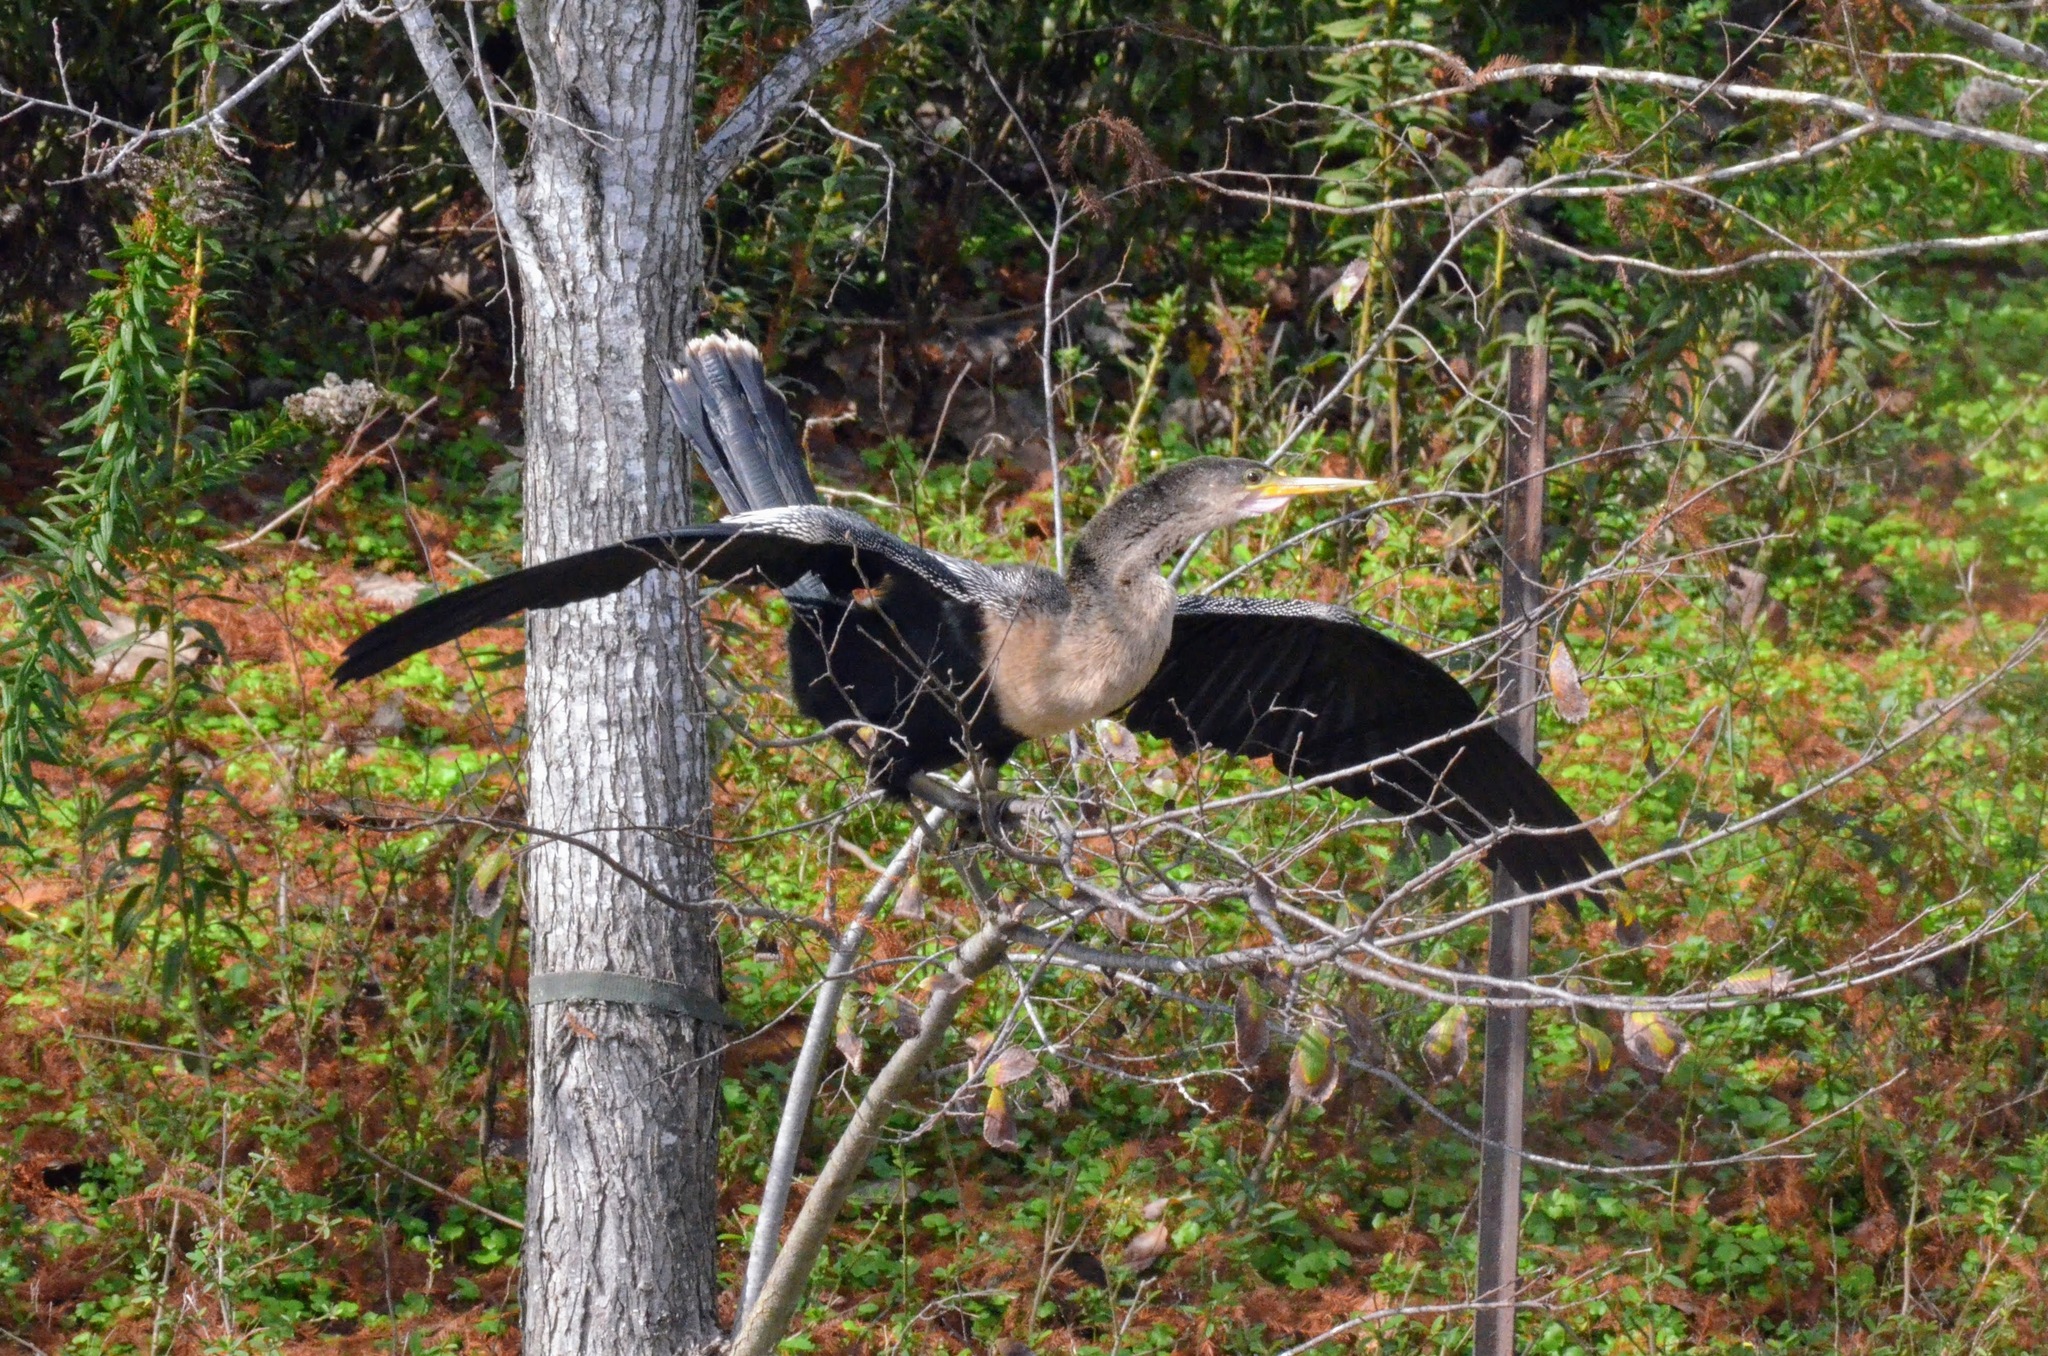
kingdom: Animalia
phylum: Chordata
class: Aves
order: Suliformes
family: Anhingidae
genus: Anhinga
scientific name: Anhinga anhinga
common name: Anhinga
